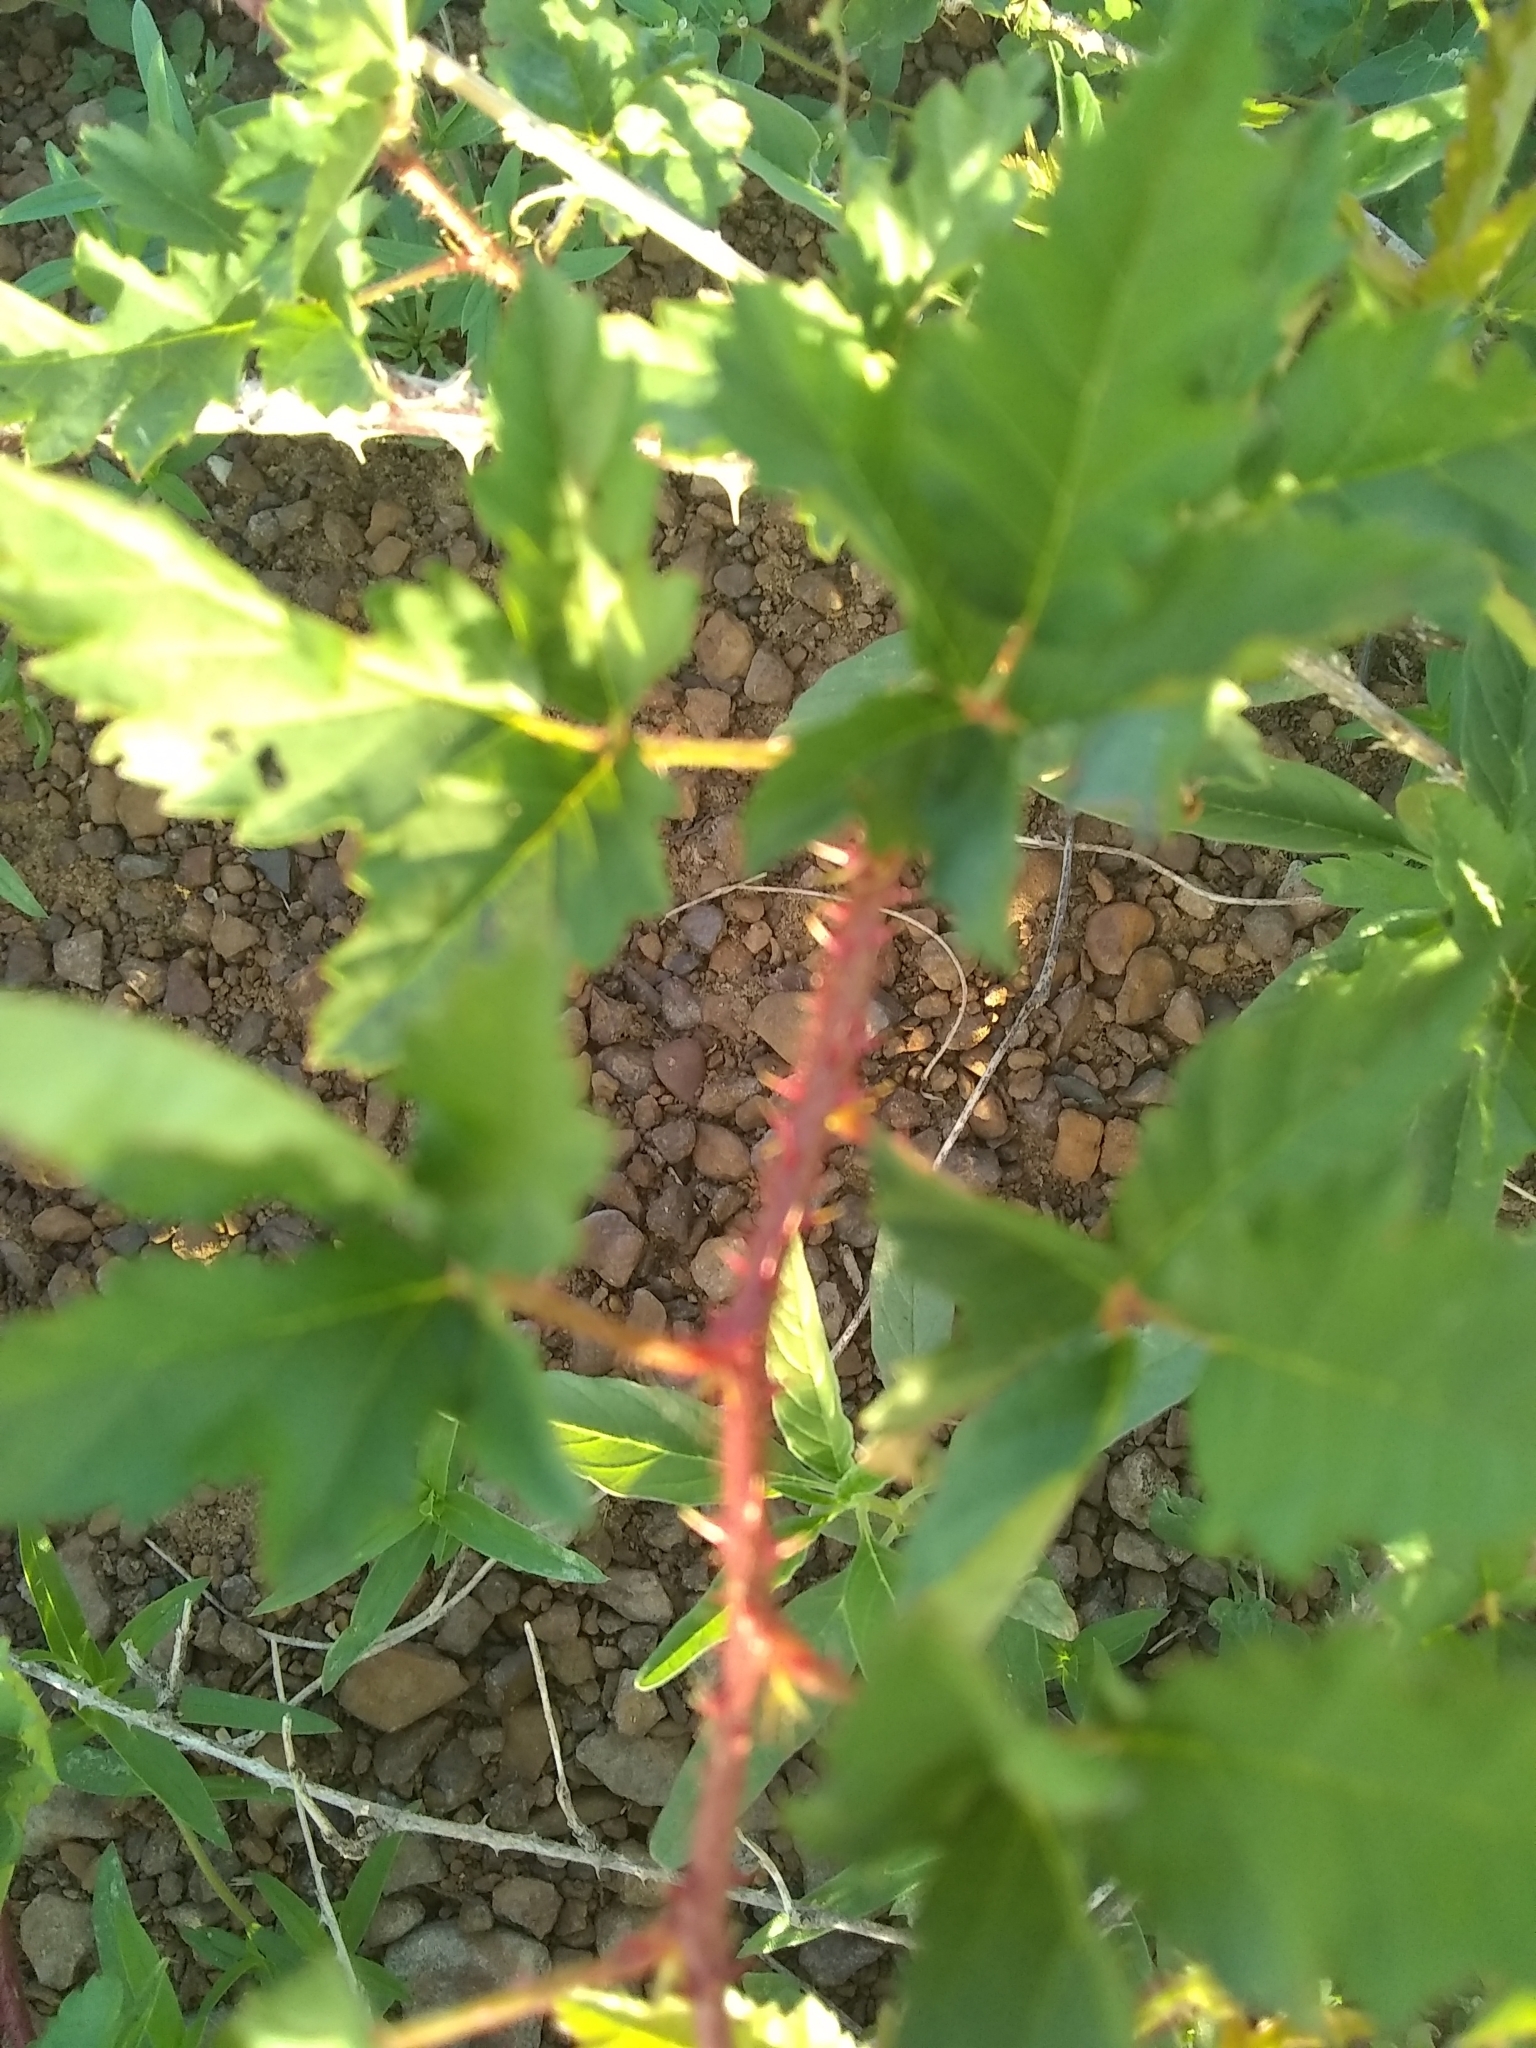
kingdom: Plantae
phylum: Tracheophyta
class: Magnoliopsida
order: Rosales
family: Rosaceae
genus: Rubus
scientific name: Rubus trivialis
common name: Southern dewberry
